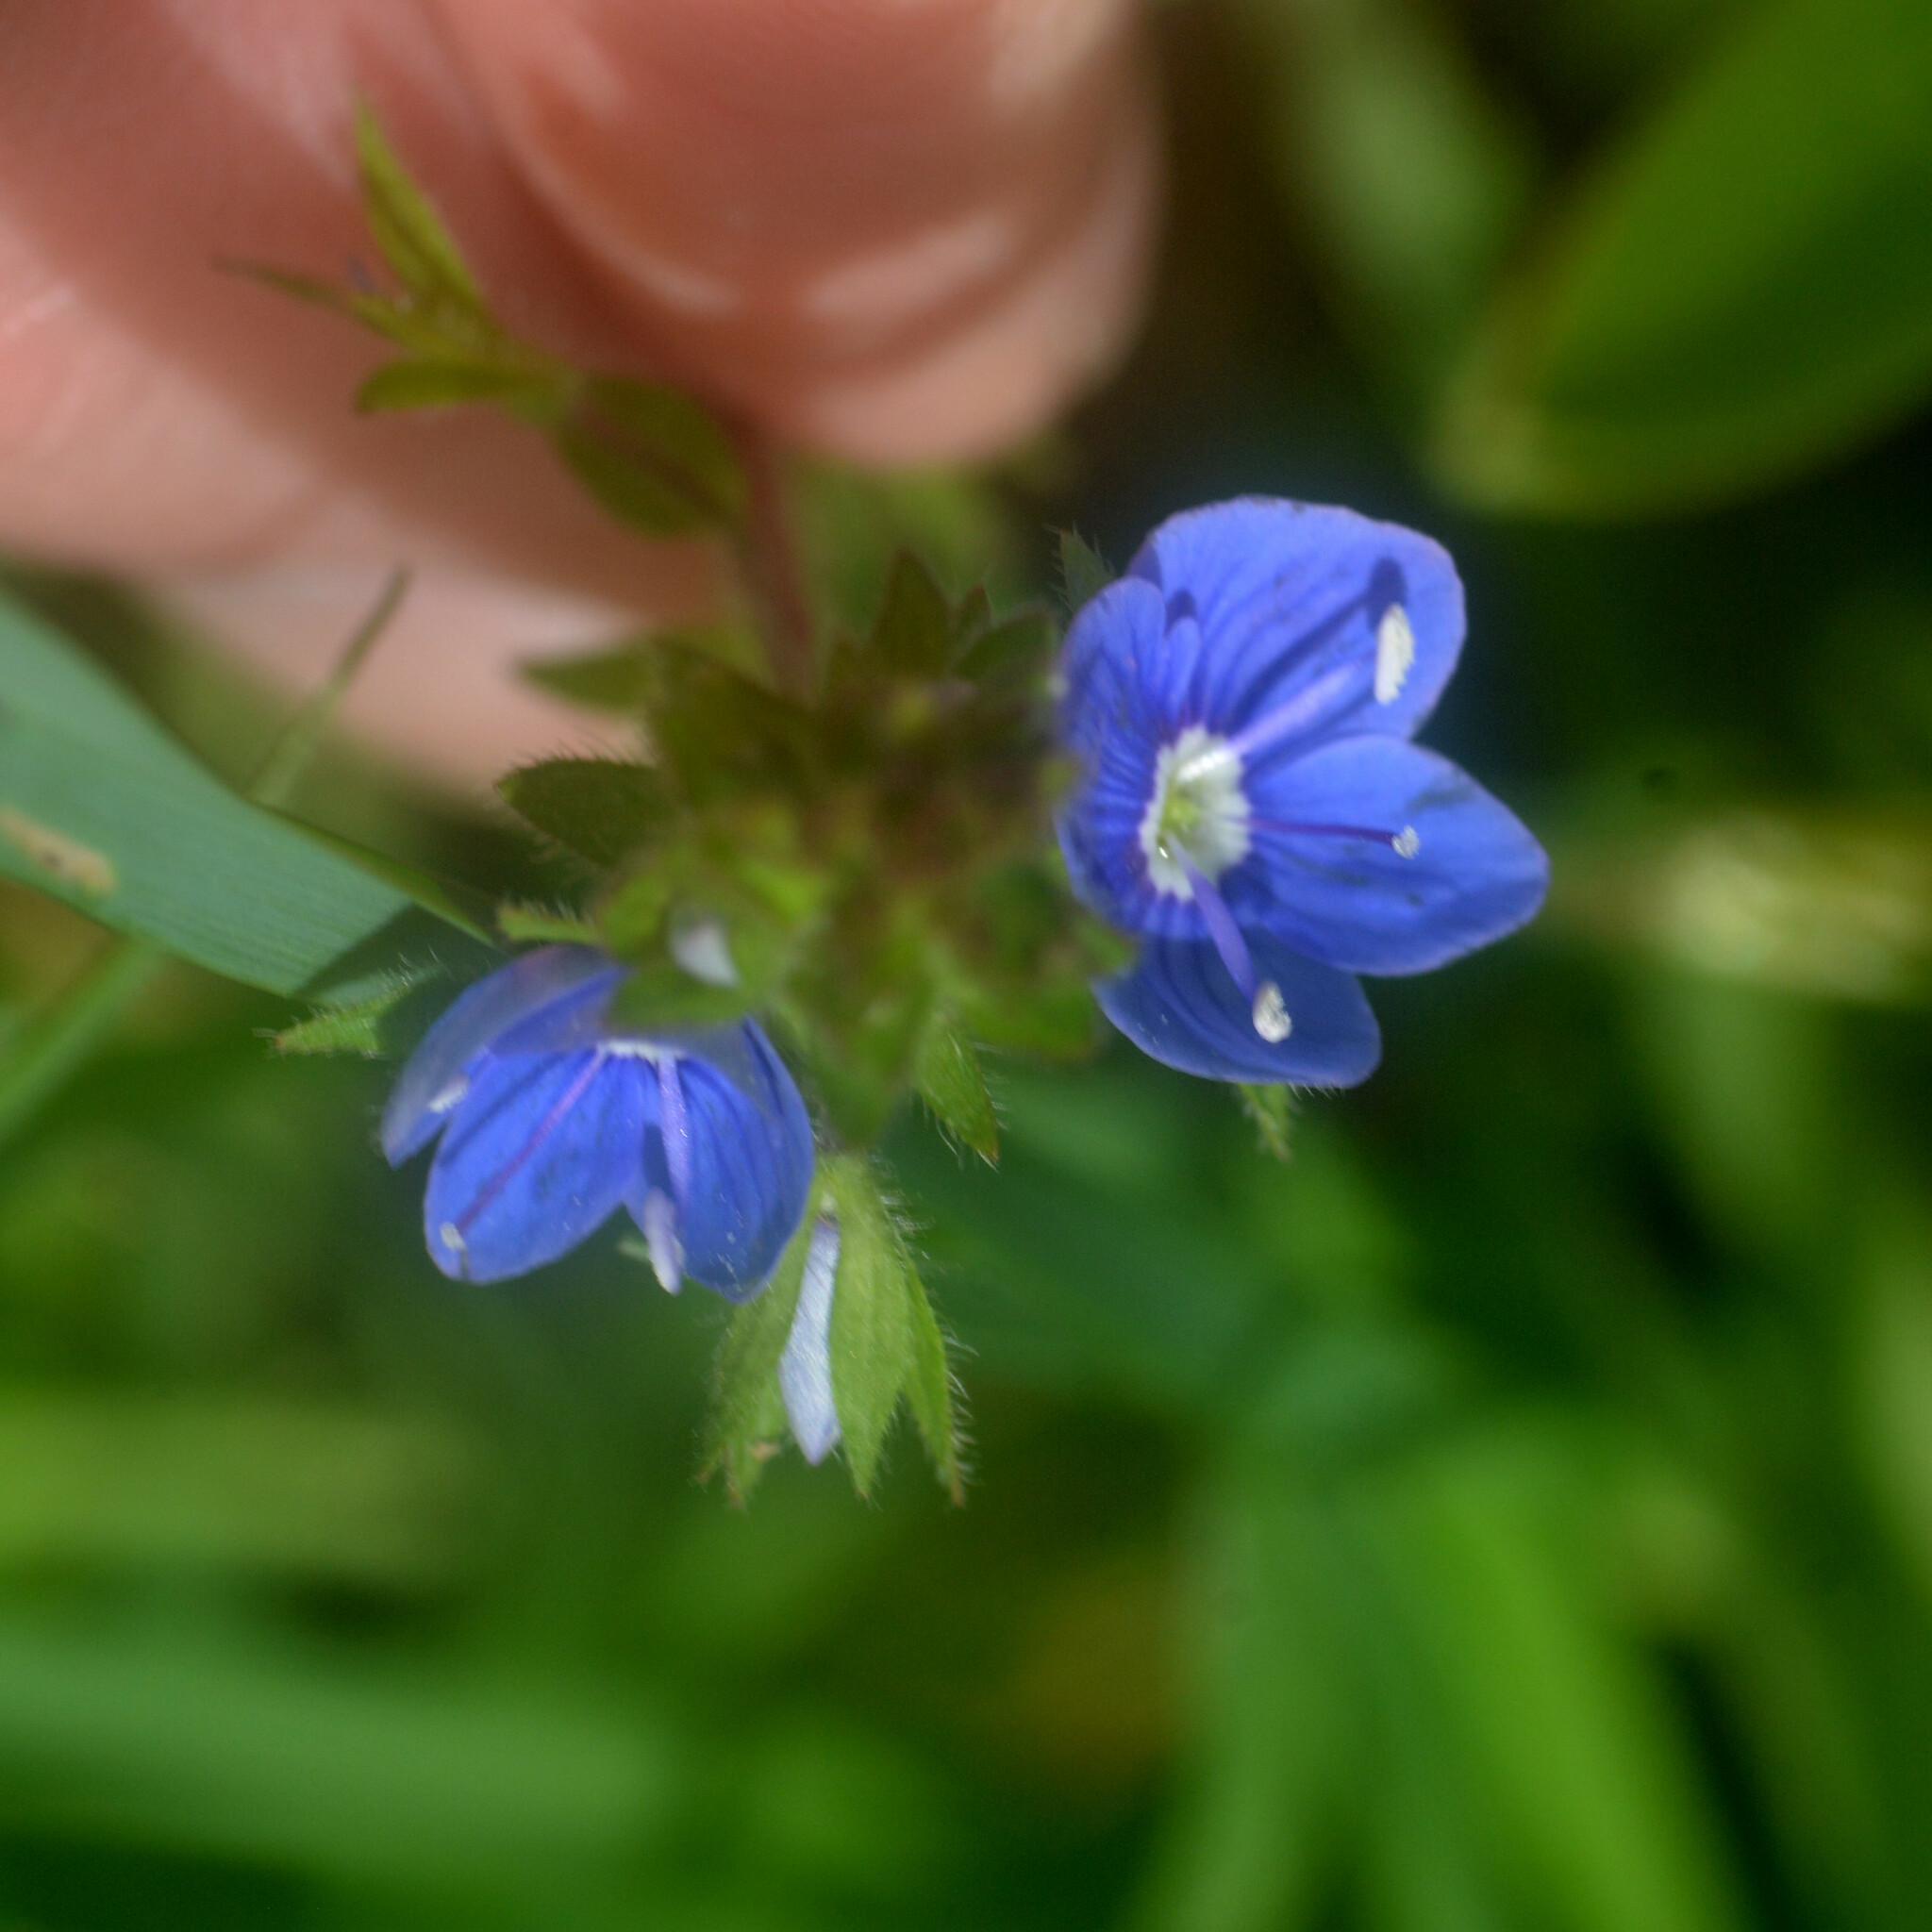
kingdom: Plantae
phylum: Tracheophyta
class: Magnoliopsida
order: Lamiales
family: Plantaginaceae
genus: Veronica
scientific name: Veronica chamaedrys
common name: Germander speedwell
